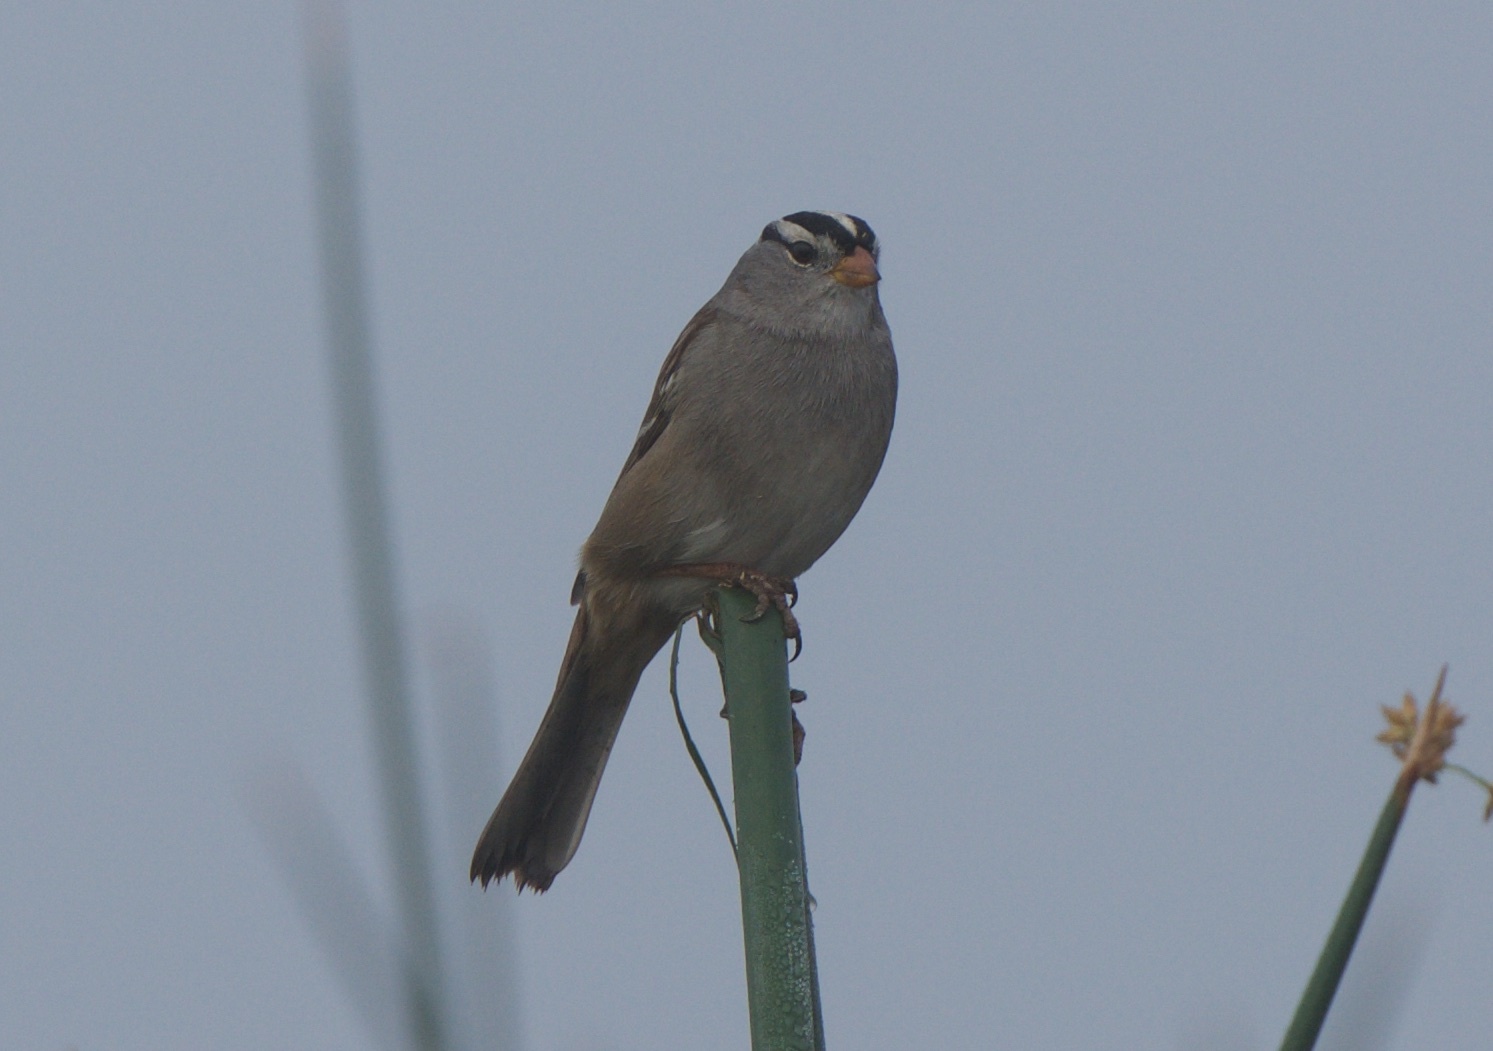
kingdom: Animalia
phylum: Chordata
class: Aves
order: Passeriformes
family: Passerellidae
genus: Zonotrichia
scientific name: Zonotrichia leucophrys
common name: White-crowned sparrow
